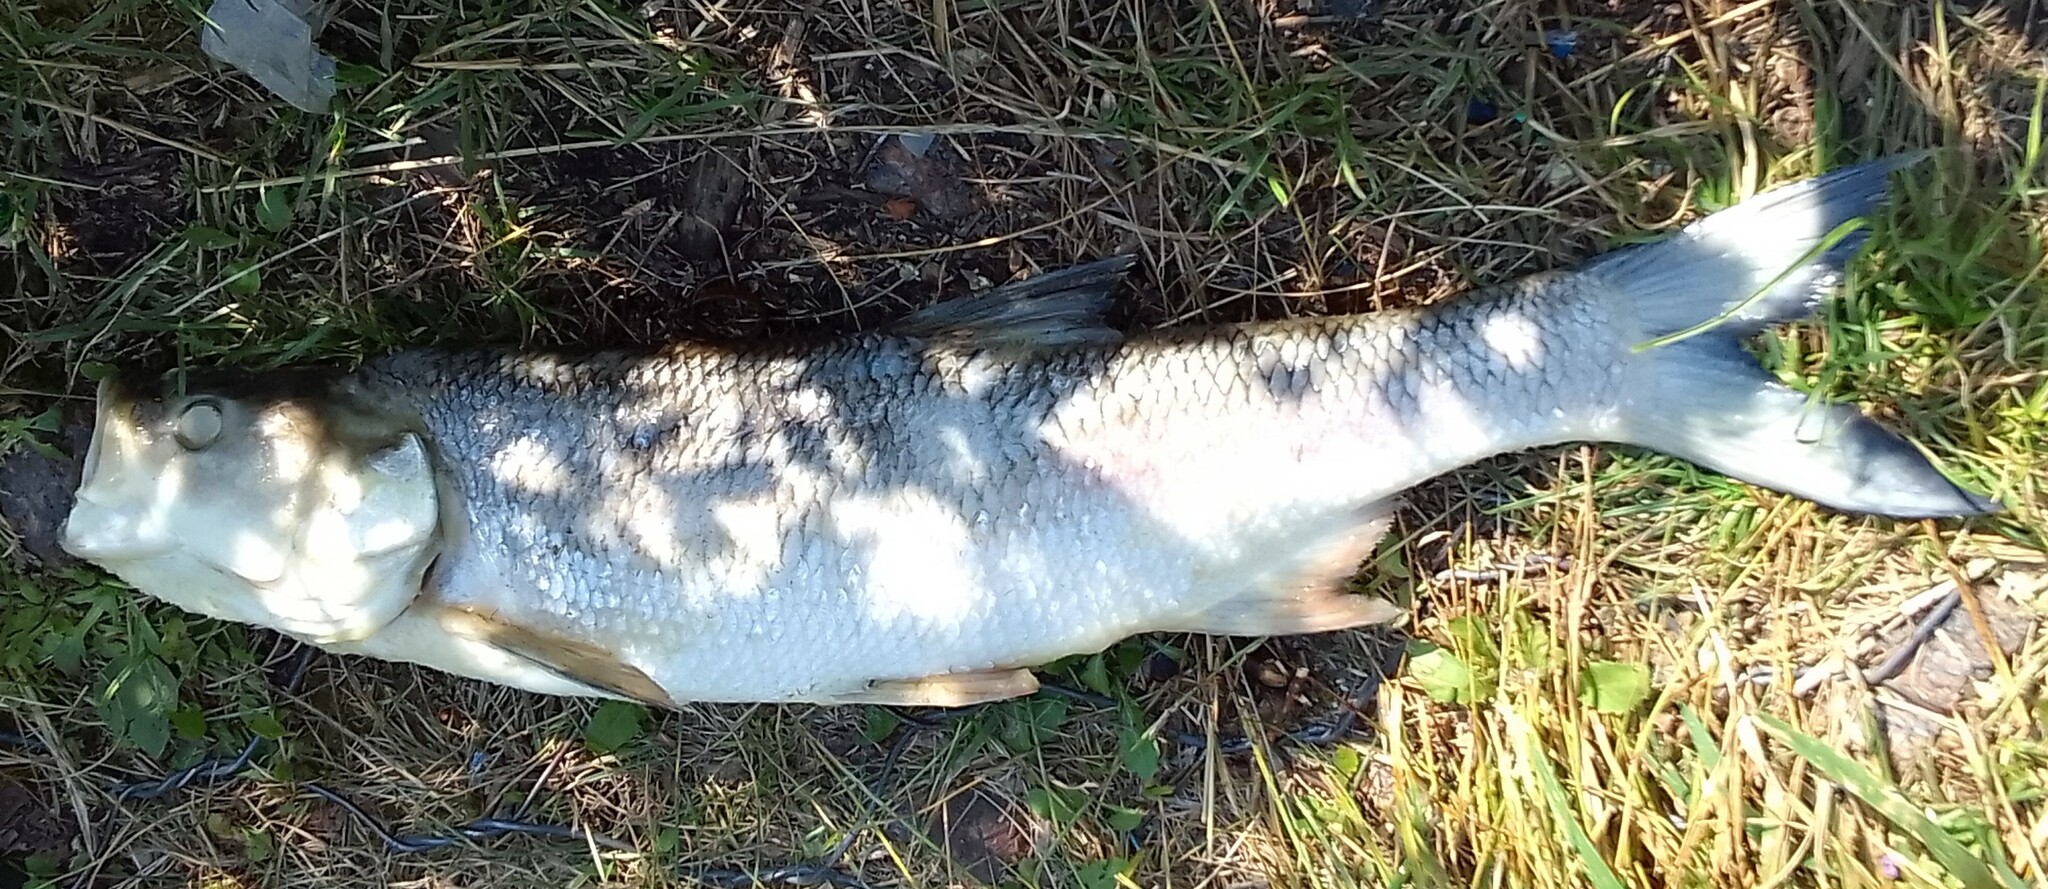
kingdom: Animalia
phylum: Chordata
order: Cypriniformes
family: Cyprinidae
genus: Leuciscus
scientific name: Leuciscus aspius
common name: Asp
